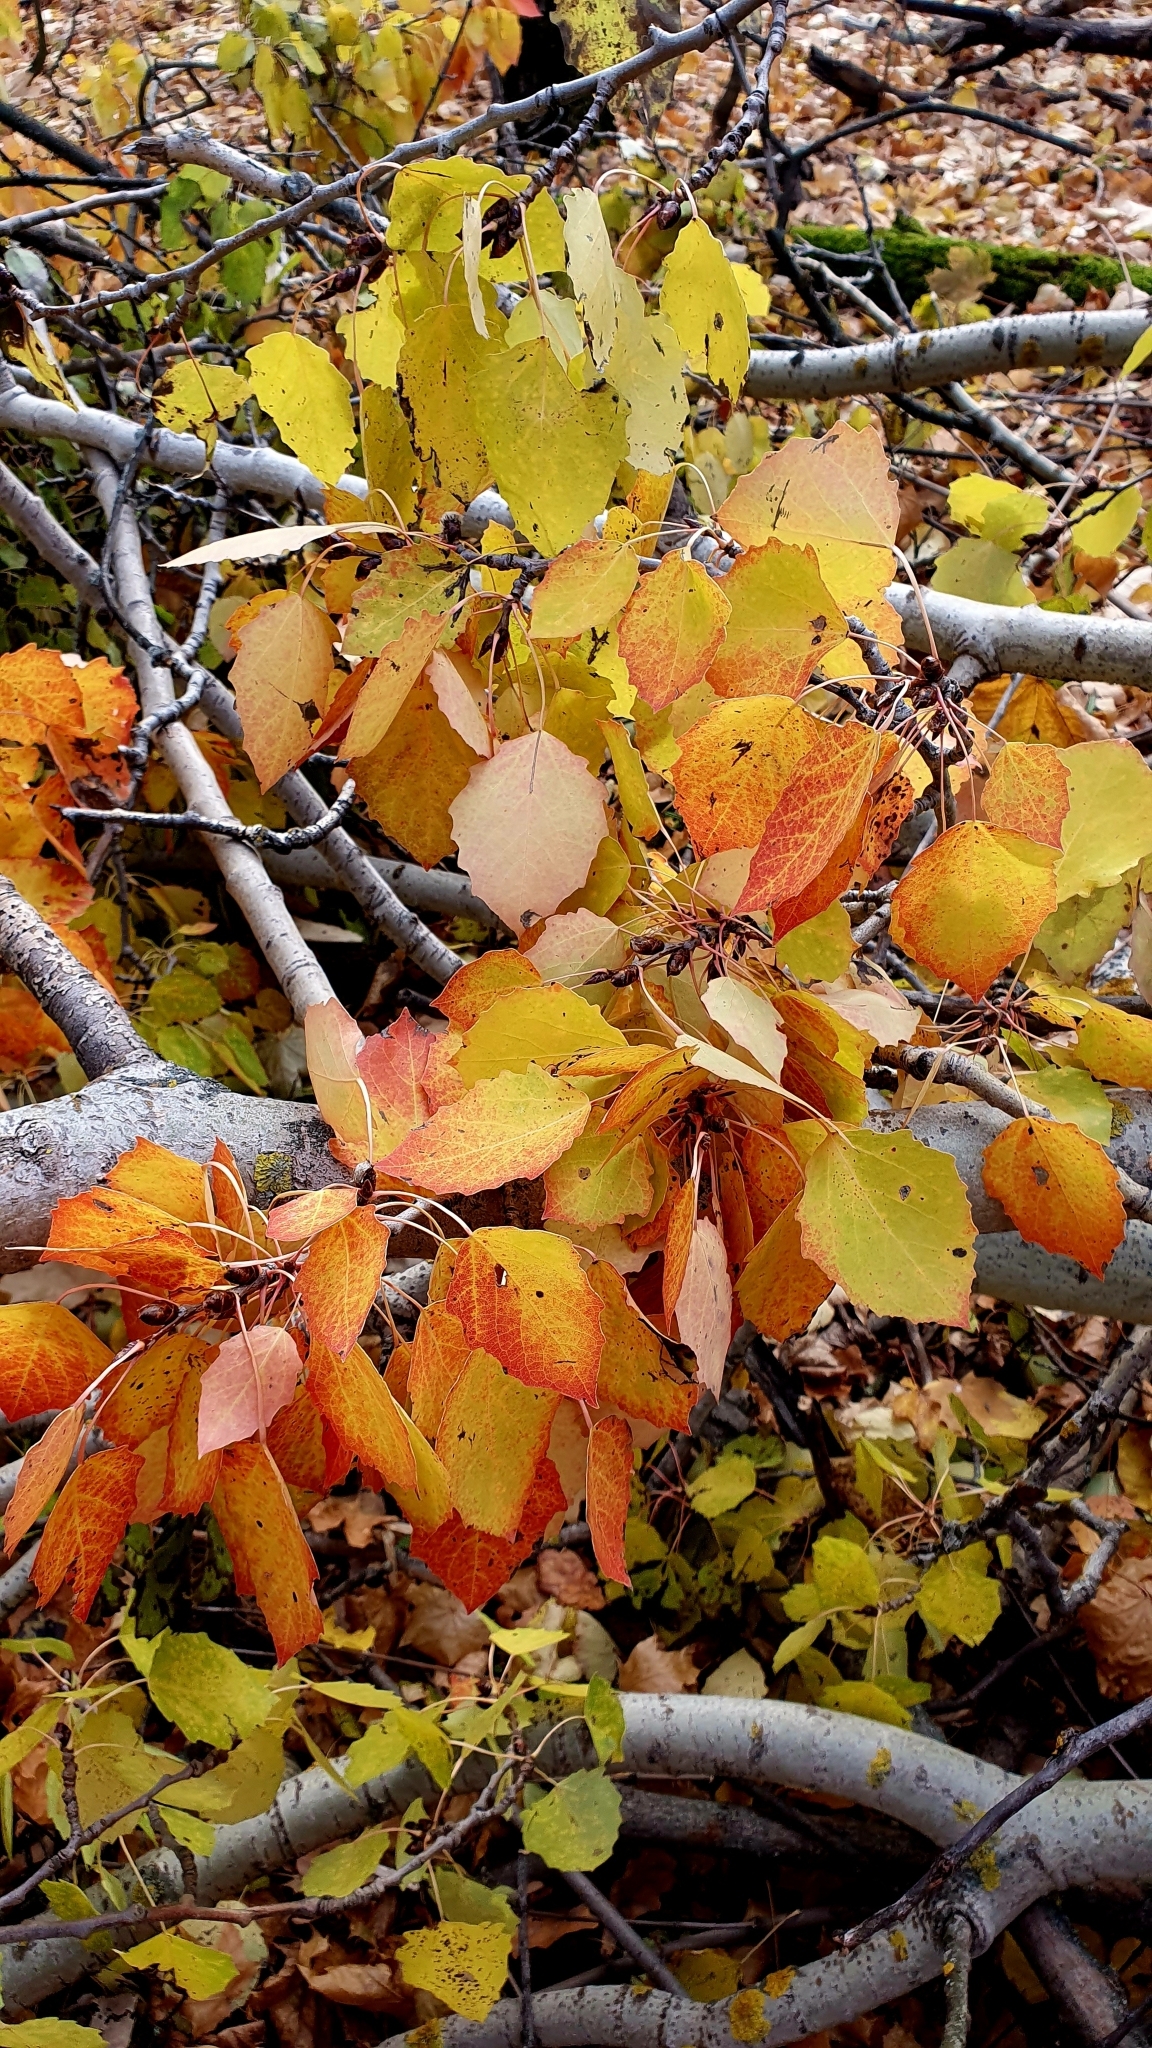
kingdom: Plantae
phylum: Tracheophyta
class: Magnoliopsida
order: Malpighiales
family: Salicaceae
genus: Populus
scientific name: Populus tremula
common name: European aspen
